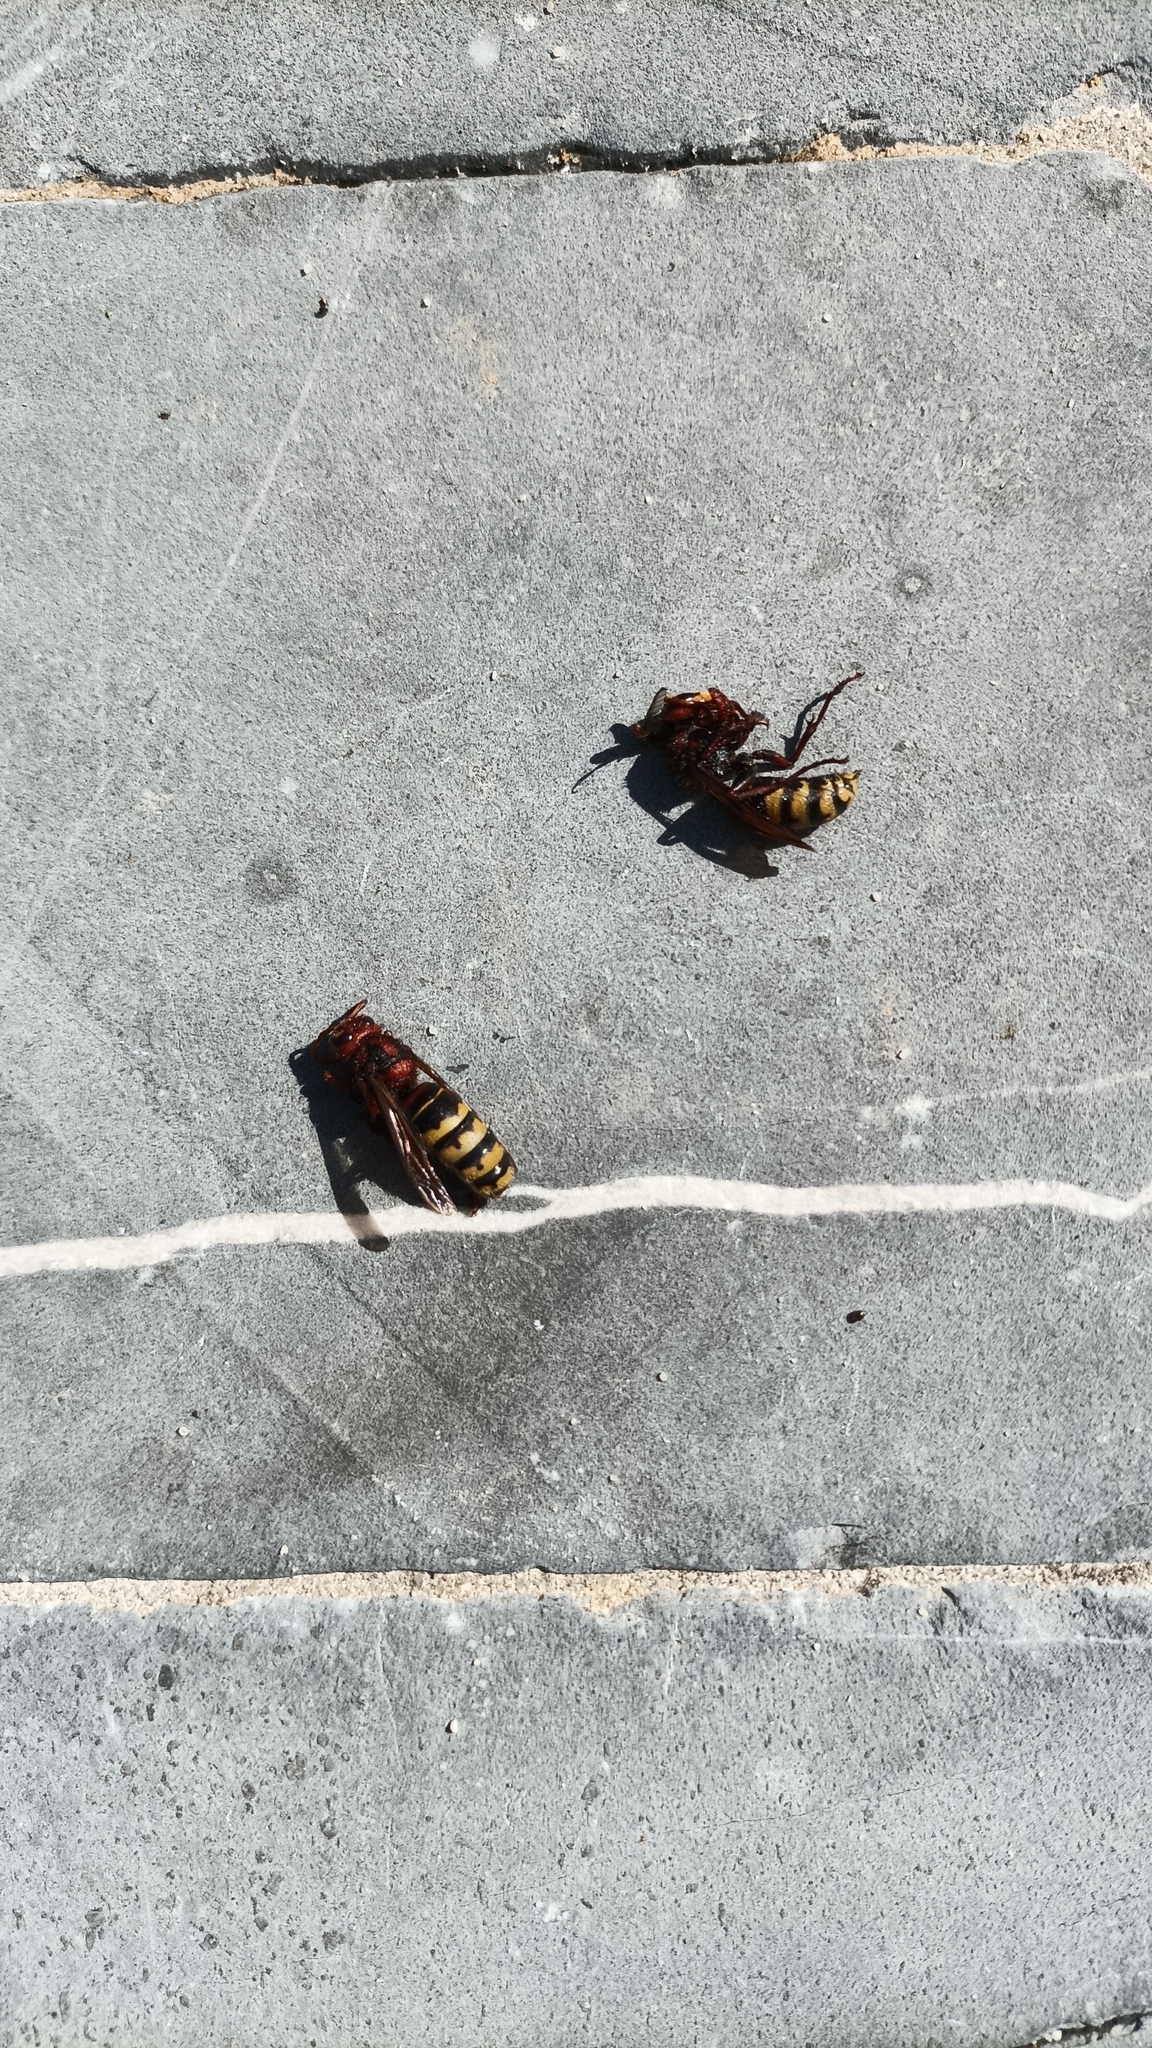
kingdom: Animalia
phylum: Arthropoda
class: Insecta
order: Hymenoptera
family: Vespidae
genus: Vespa
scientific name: Vespa crabro
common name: Hornet
